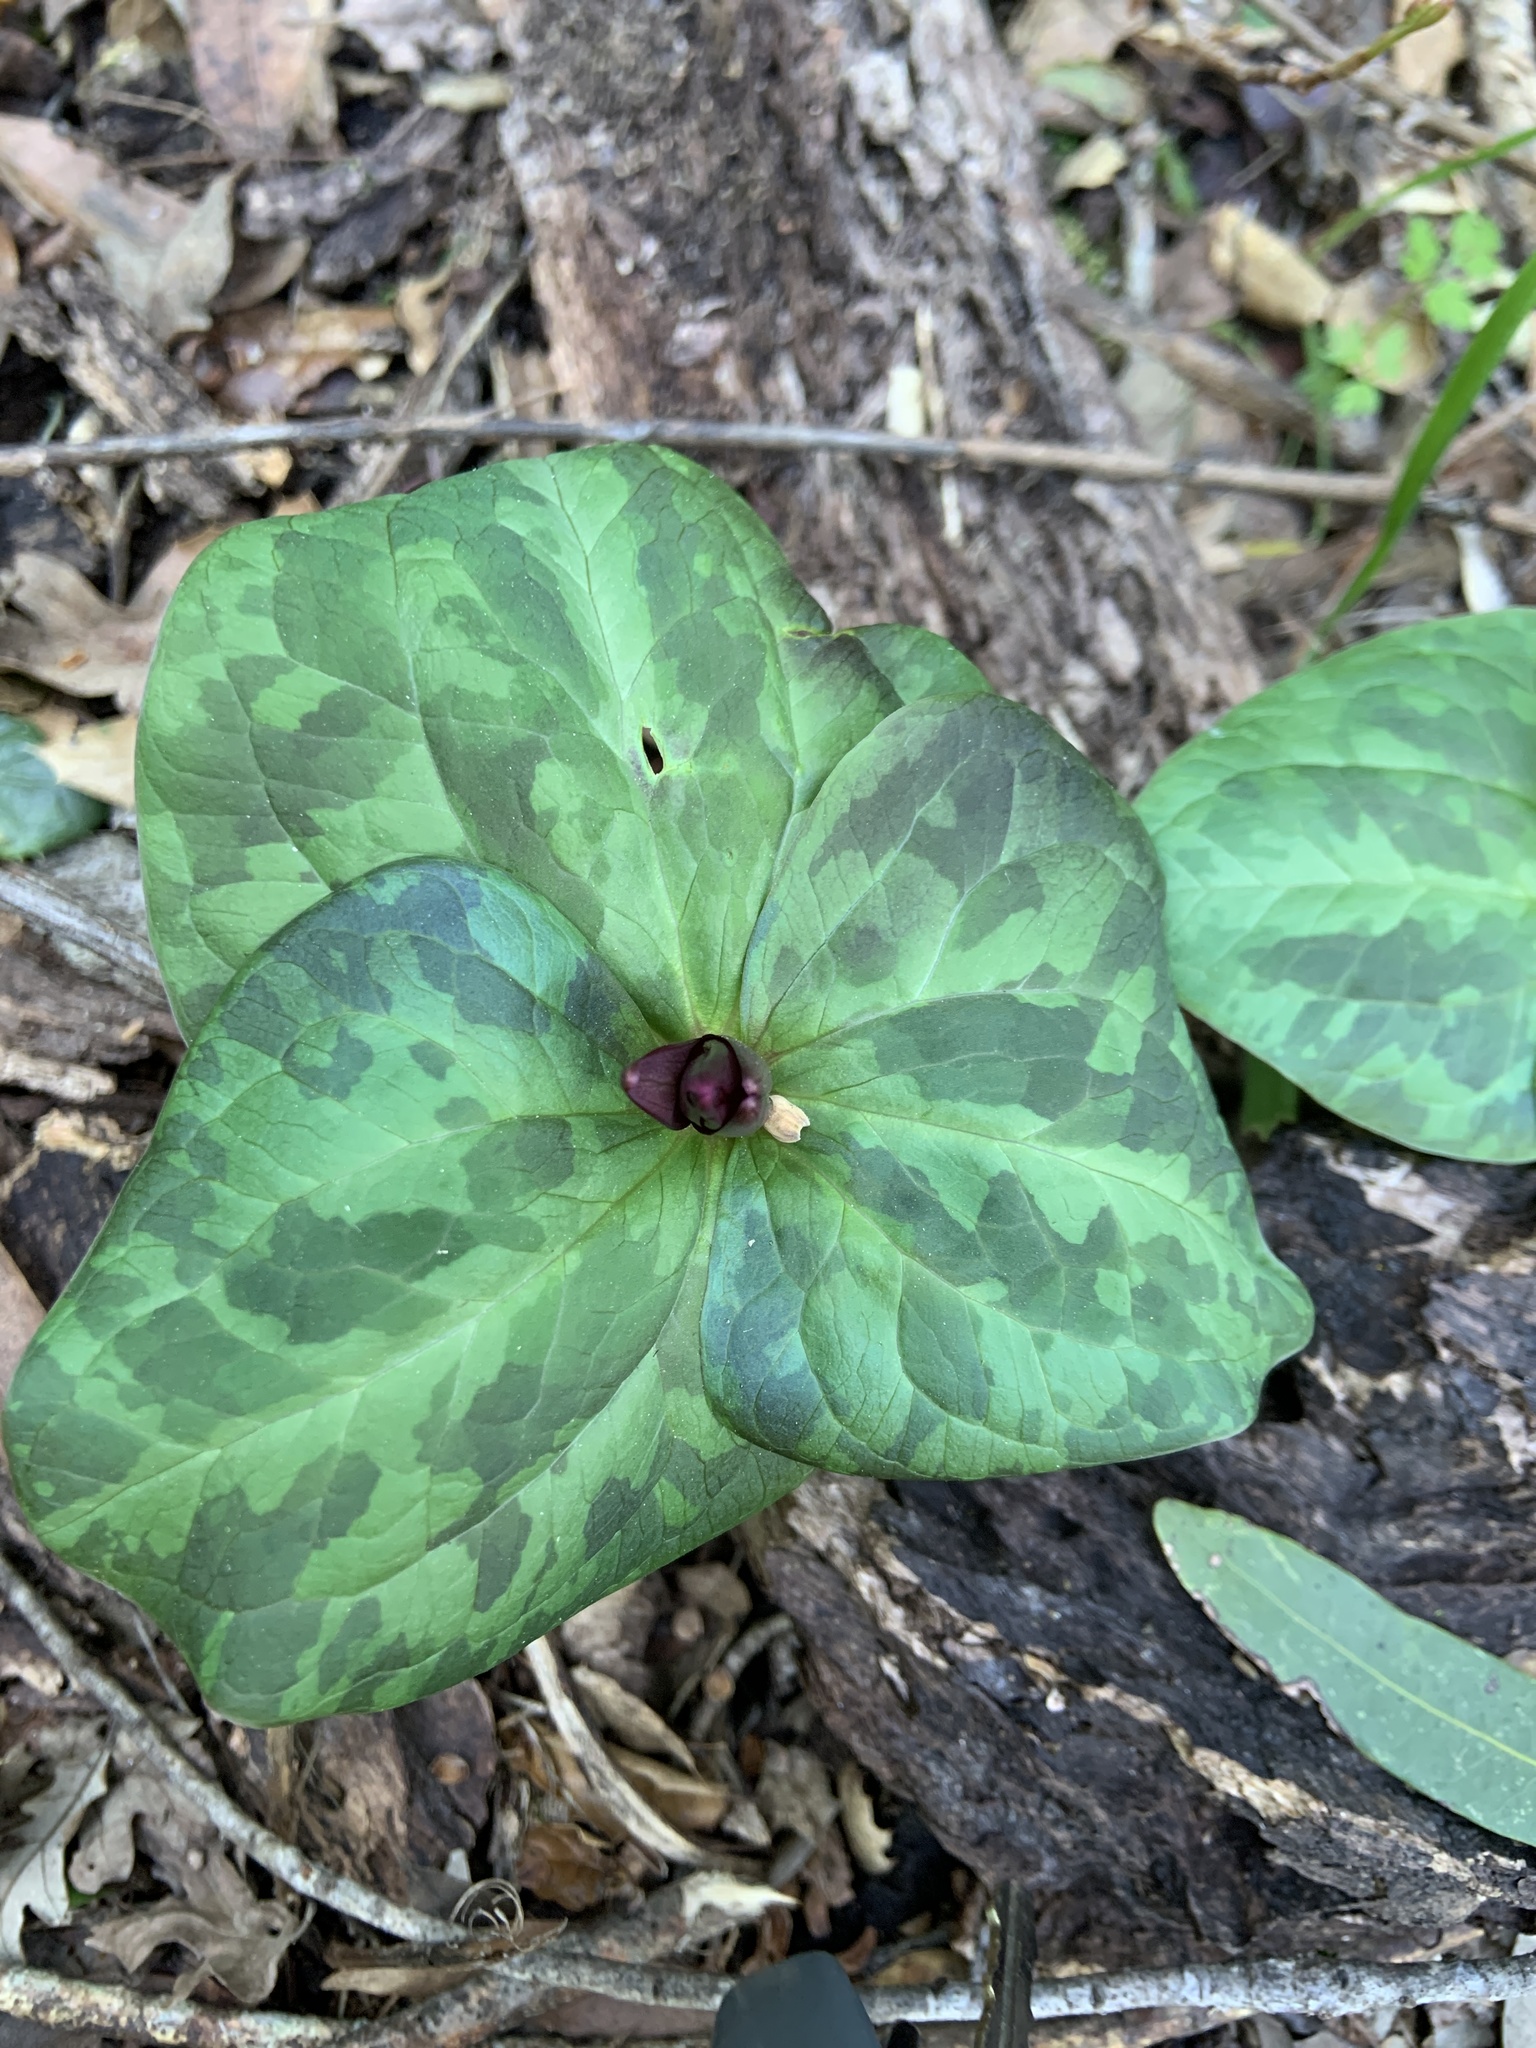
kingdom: Plantae
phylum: Tracheophyta
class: Liliopsida
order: Liliales
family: Melanthiaceae
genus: Trillium
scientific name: Trillium chloropetalum
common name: Giant trillium
